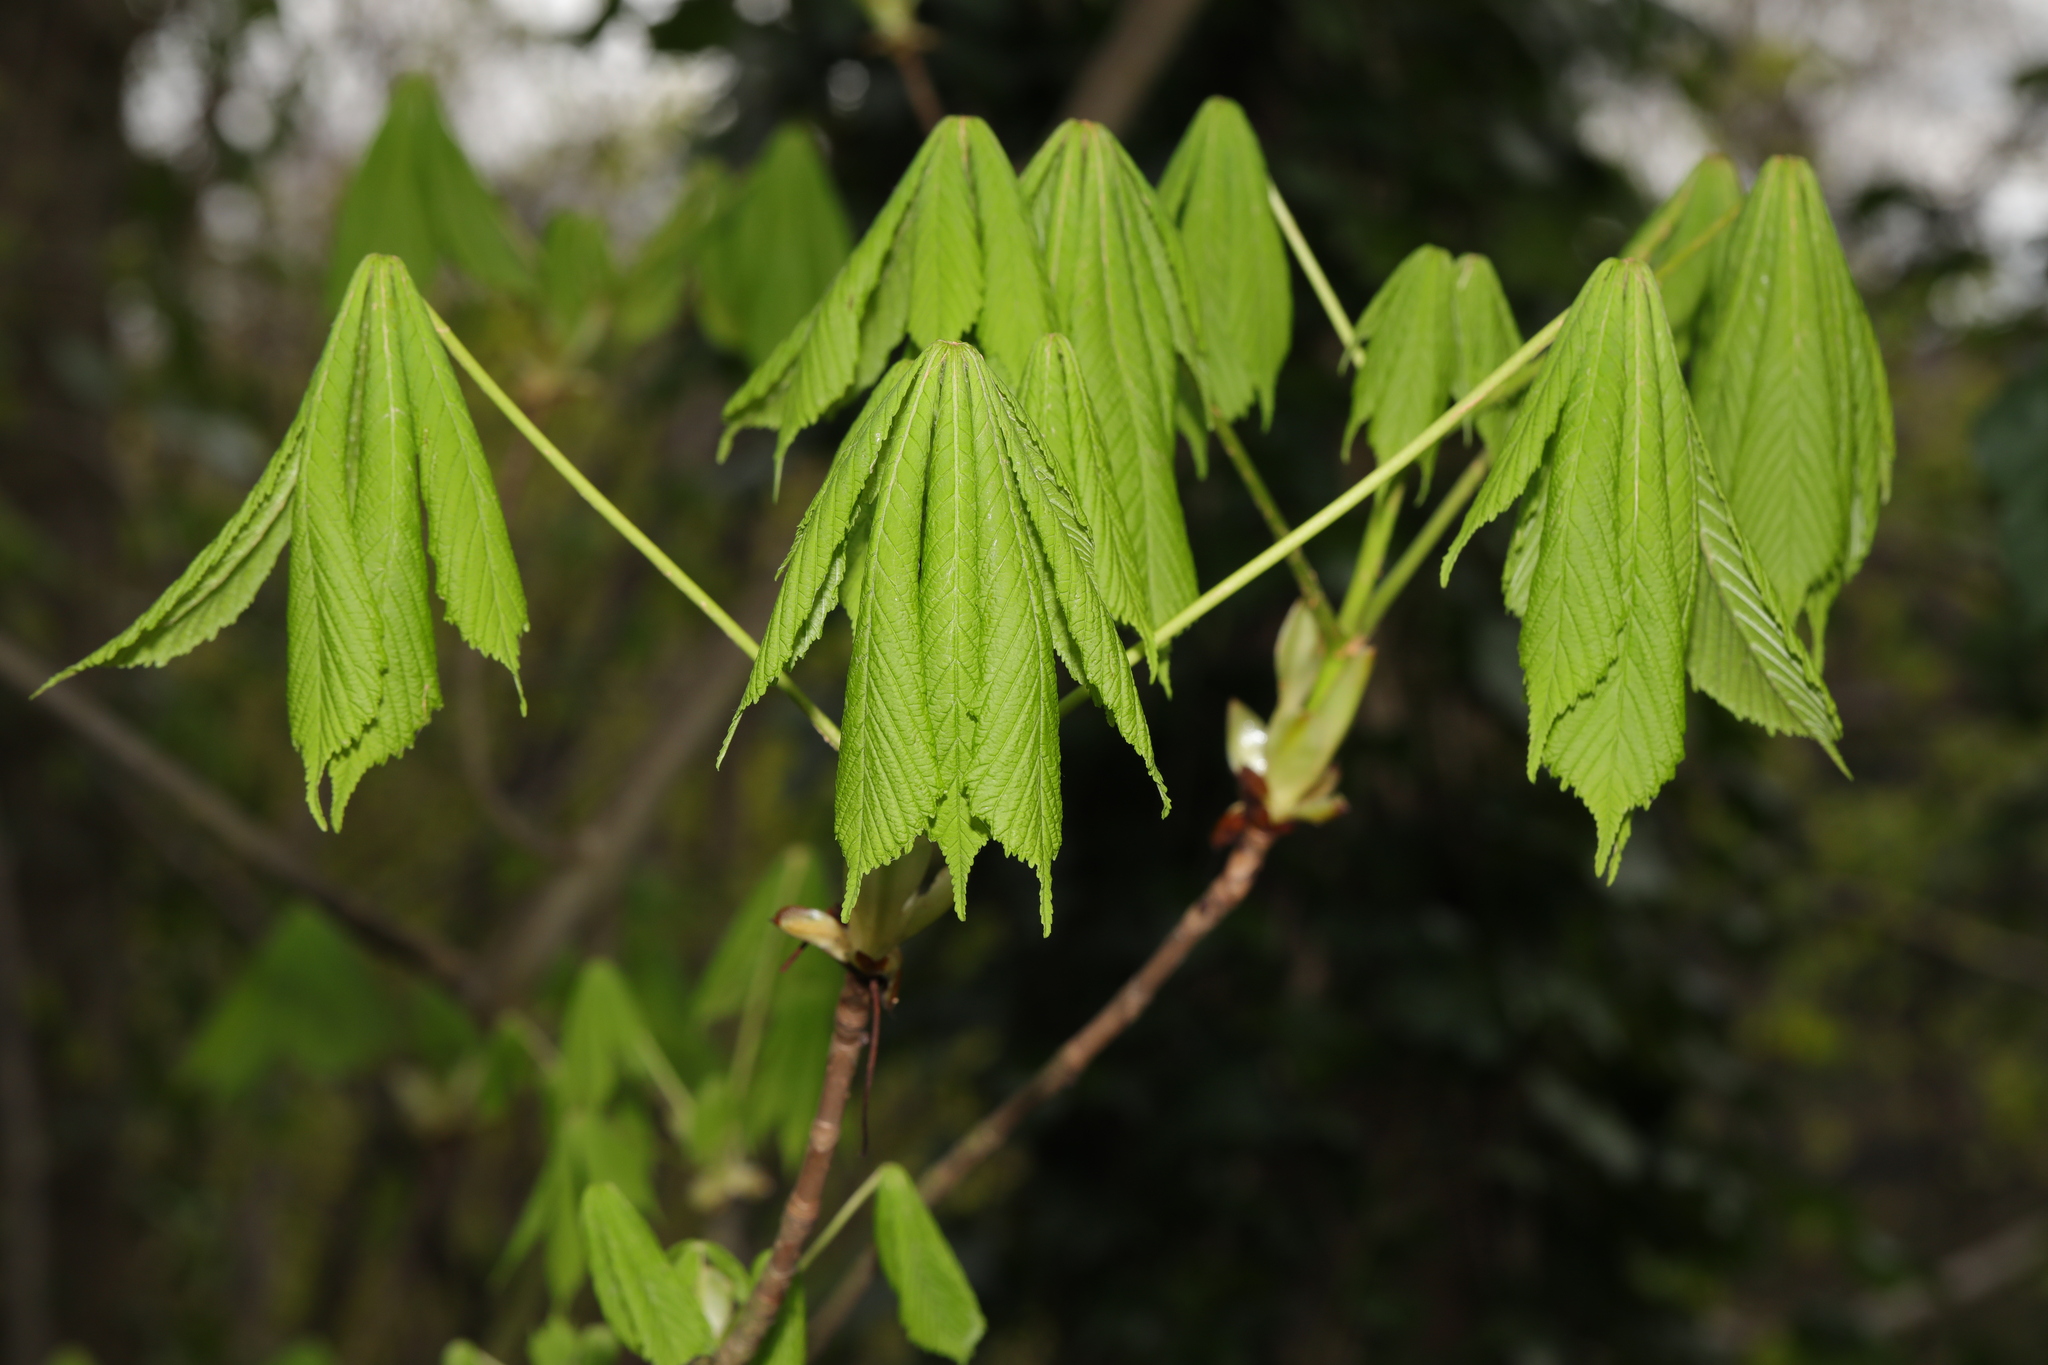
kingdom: Plantae
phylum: Tracheophyta
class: Magnoliopsida
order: Sapindales
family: Sapindaceae
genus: Aesculus
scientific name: Aesculus hippocastanum
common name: Horse-chestnut
